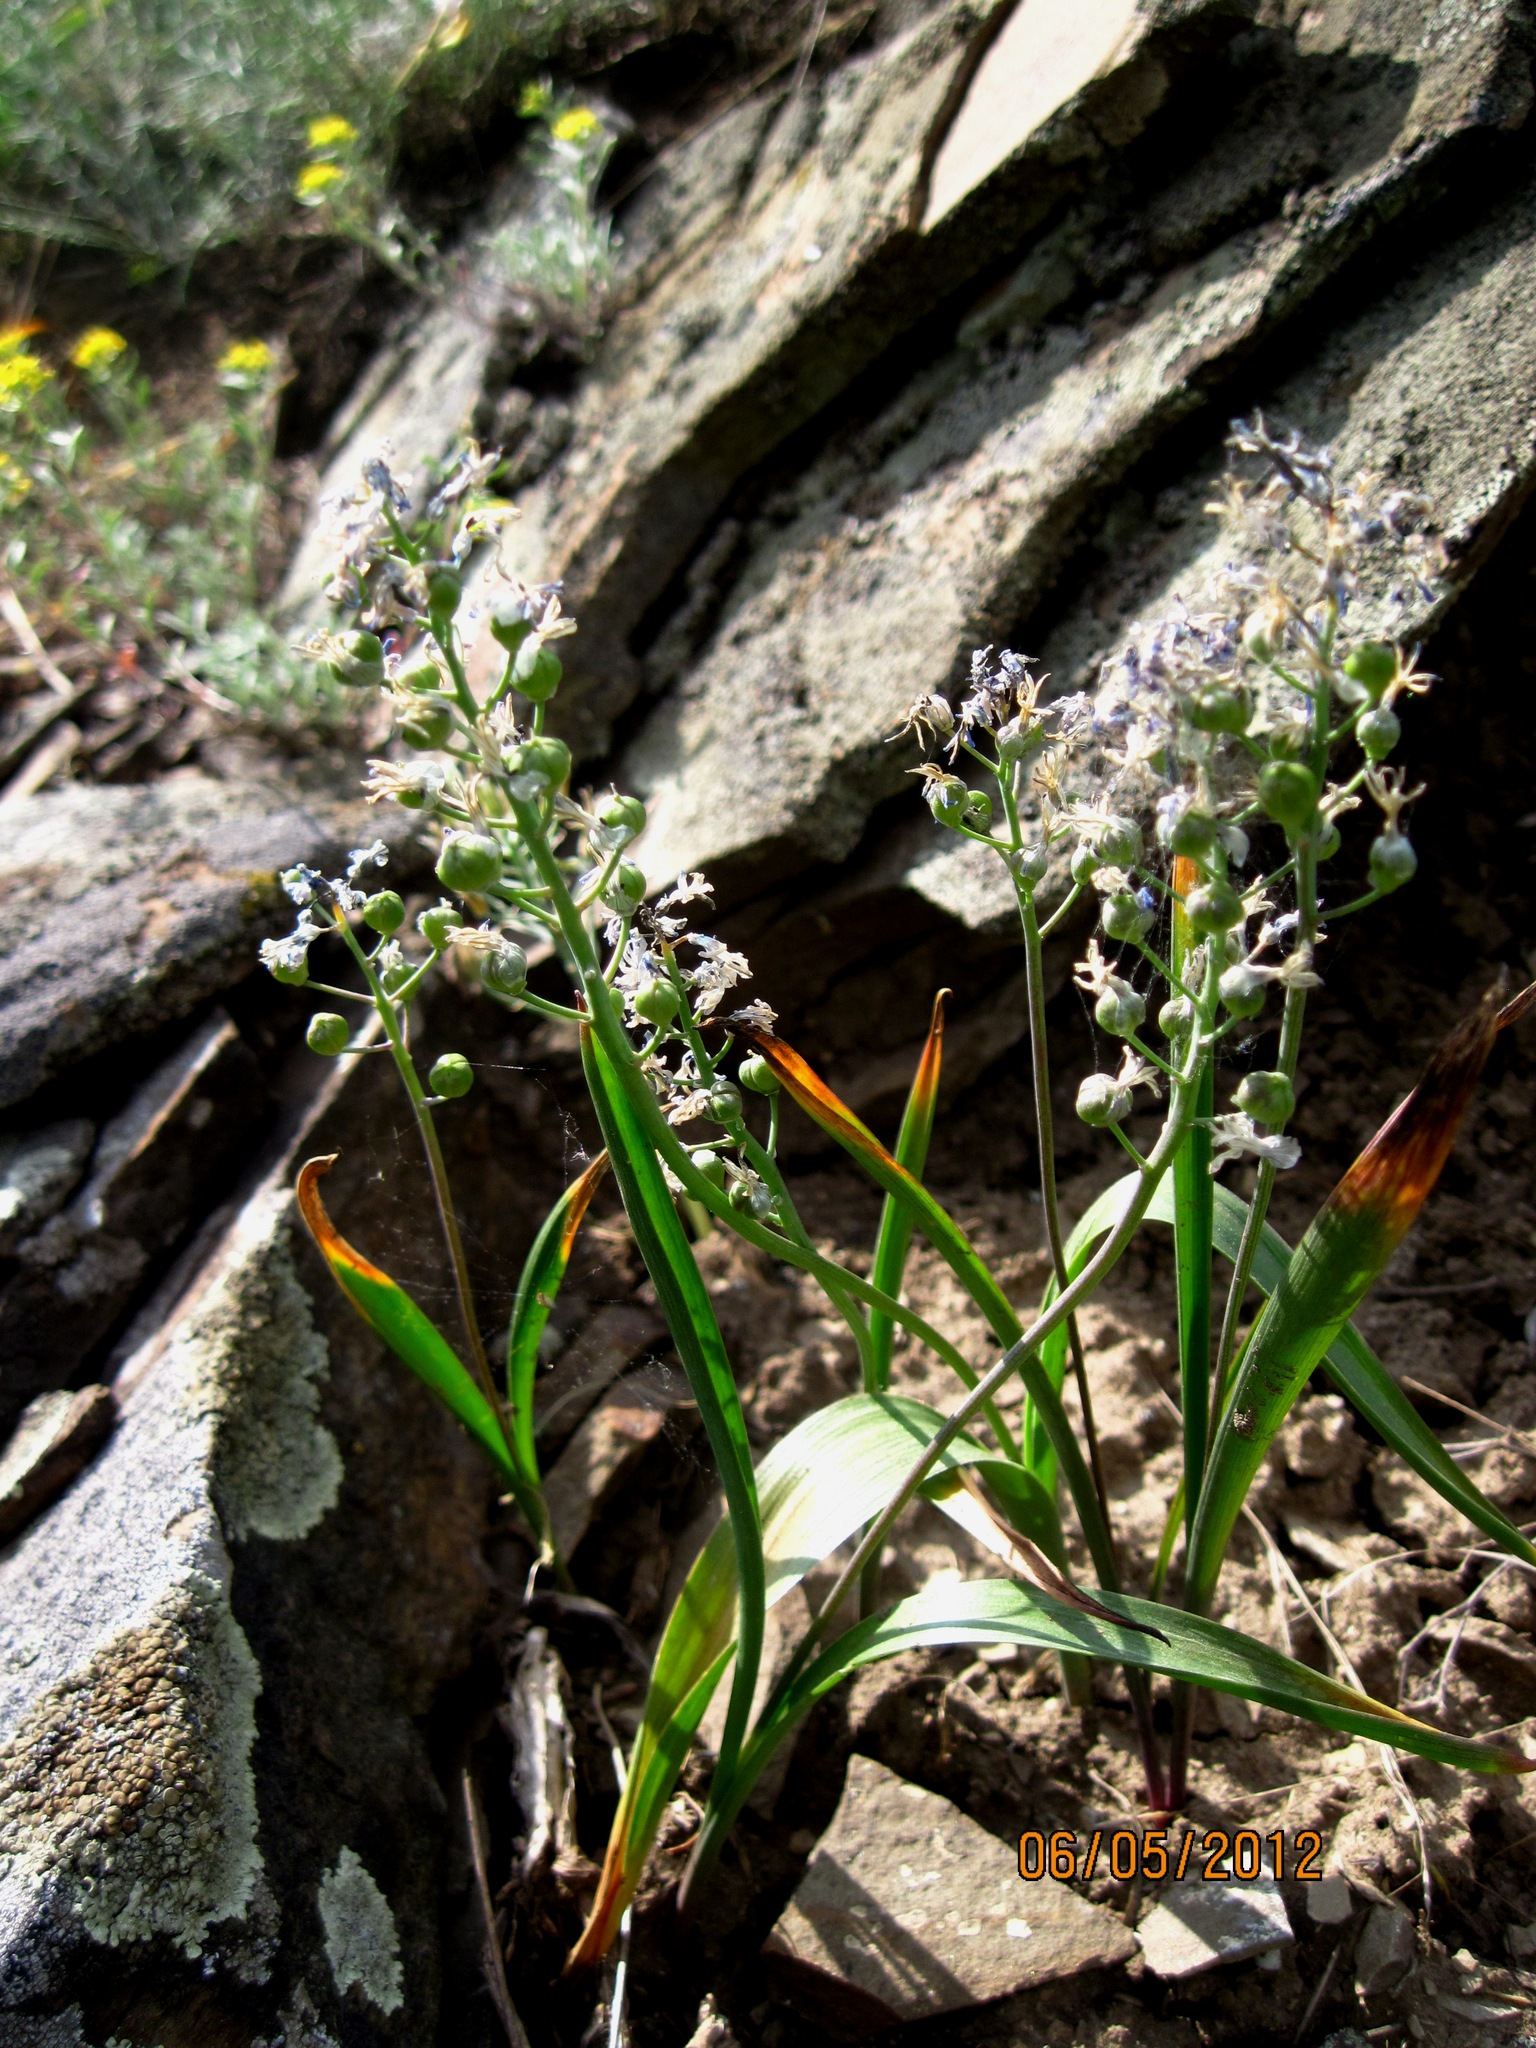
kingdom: Plantae
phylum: Tracheophyta
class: Liliopsida
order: Asparagales
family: Asparagaceae
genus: Hyacinthella
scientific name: Hyacinthella pallasiana
